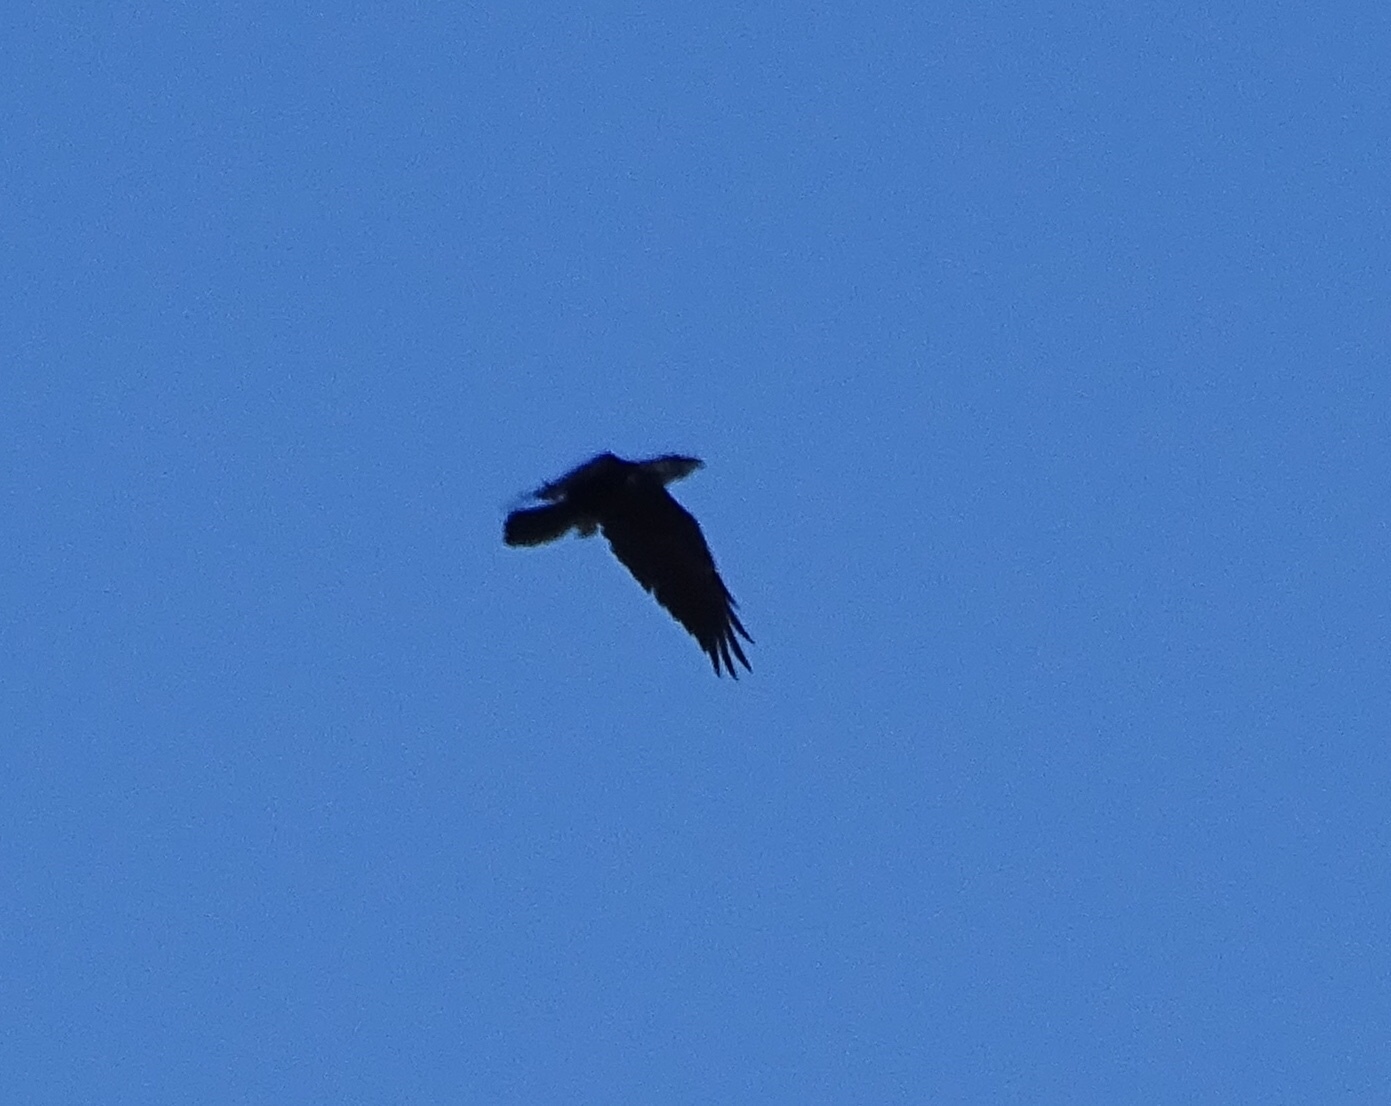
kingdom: Animalia
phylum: Chordata
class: Aves
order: Passeriformes
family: Corvidae
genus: Corvus
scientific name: Corvus corax
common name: Common raven
